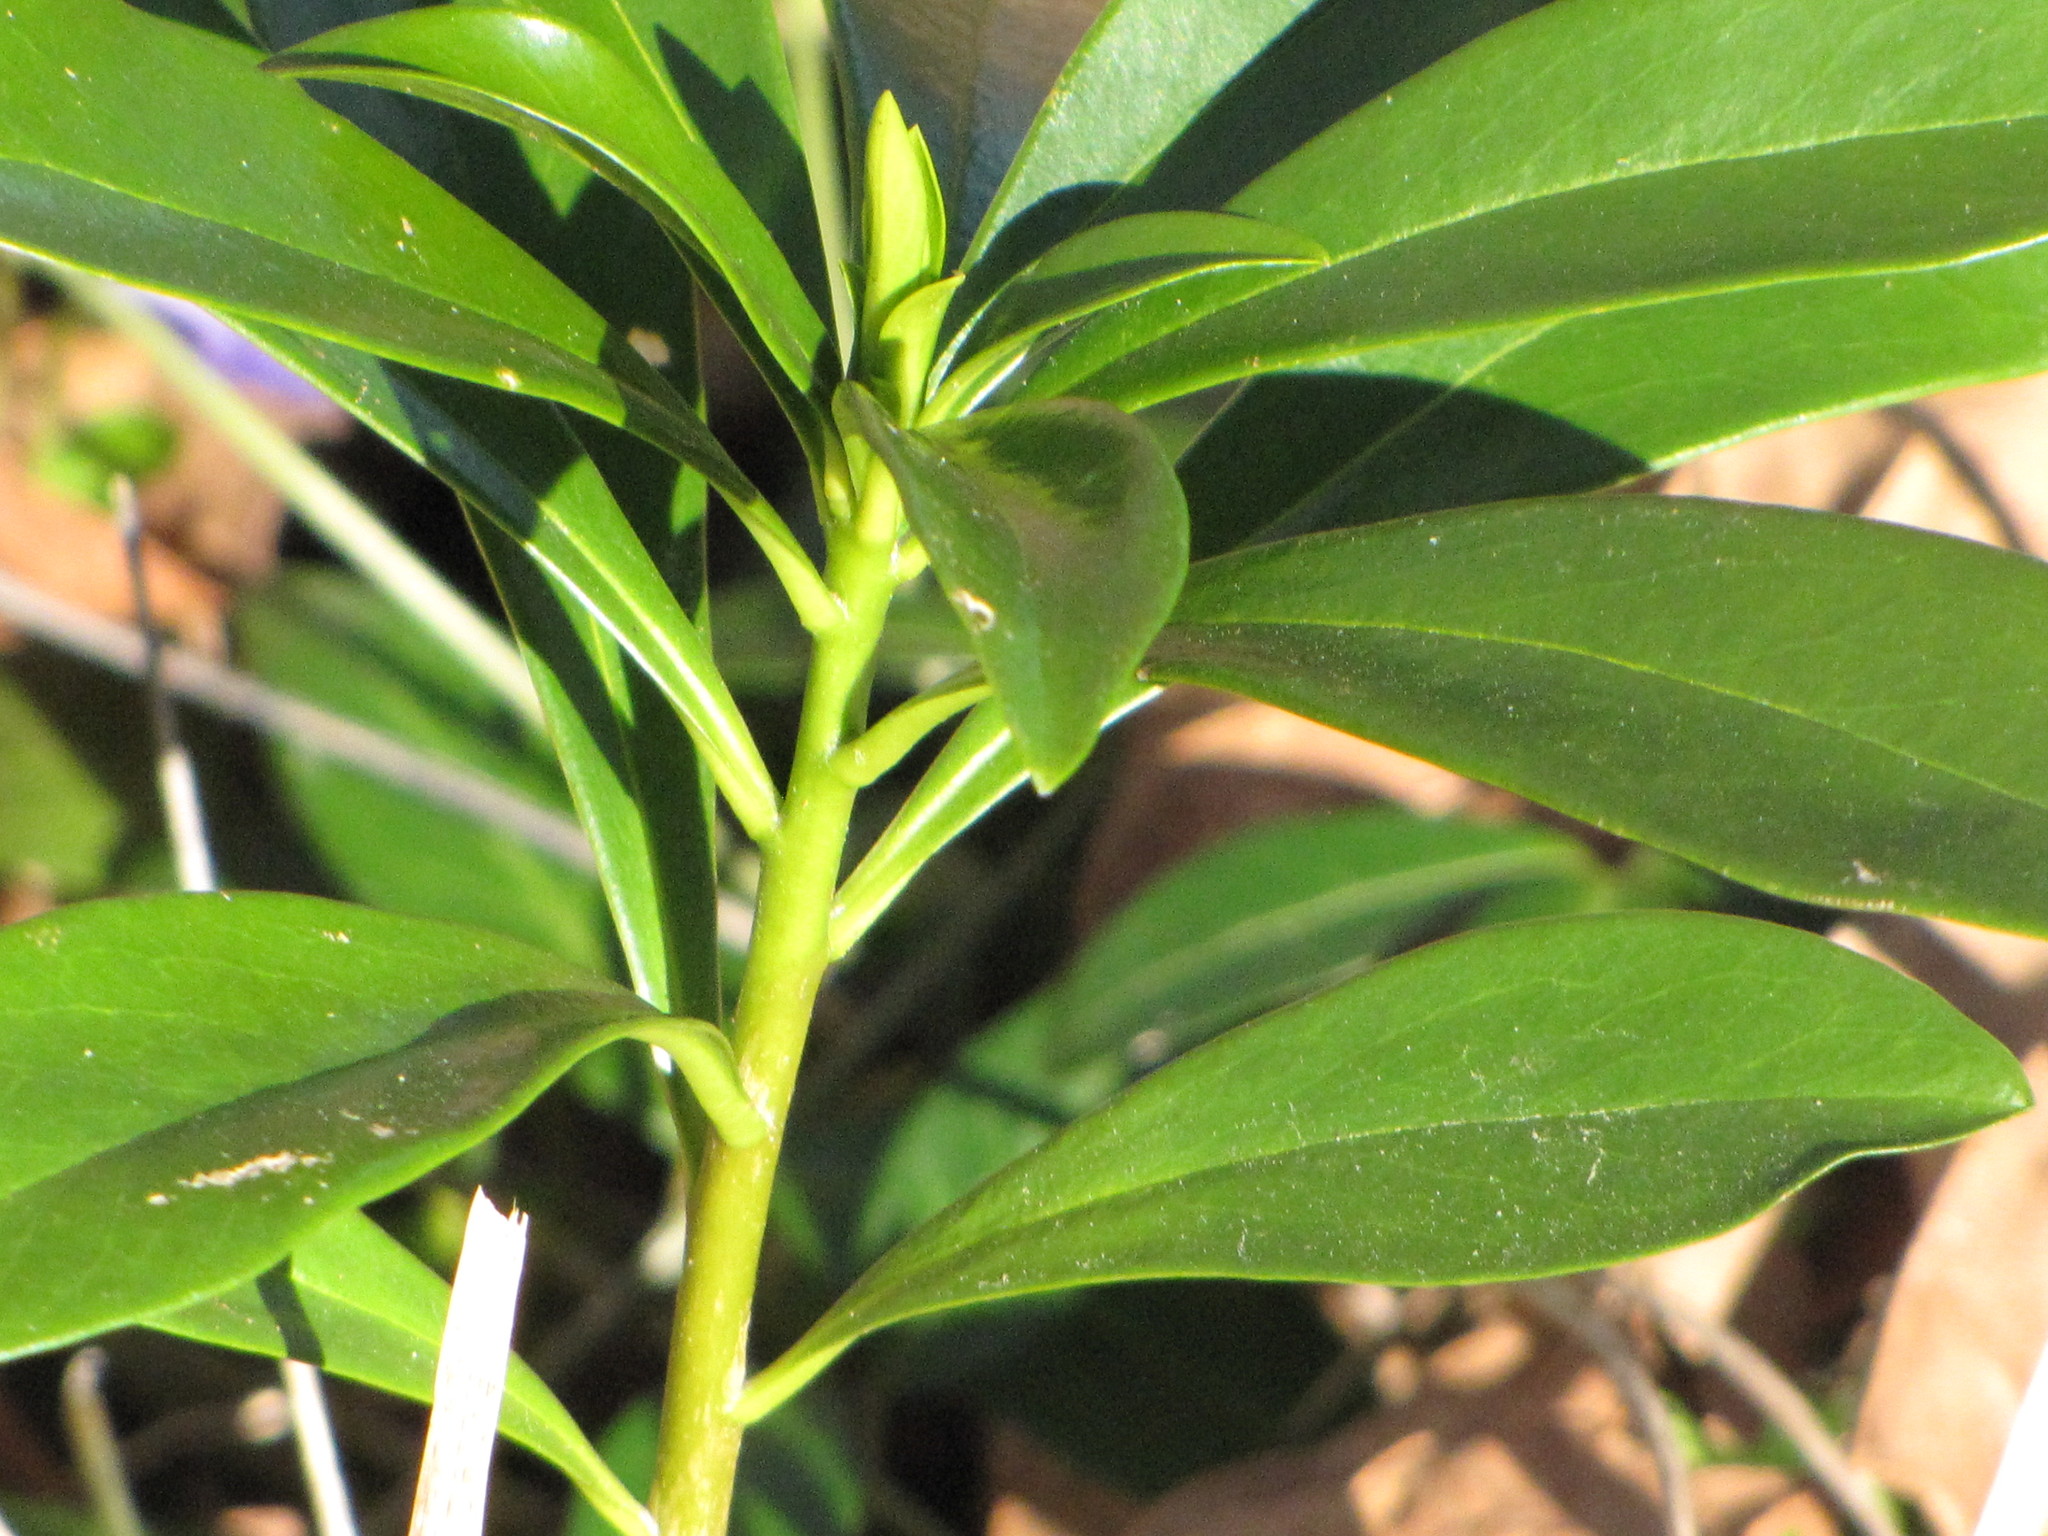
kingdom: Plantae
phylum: Tracheophyta
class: Magnoliopsida
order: Malvales
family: Thymelaeaceae
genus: Daphne
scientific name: Daphne laureola
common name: Spurge-laurel
